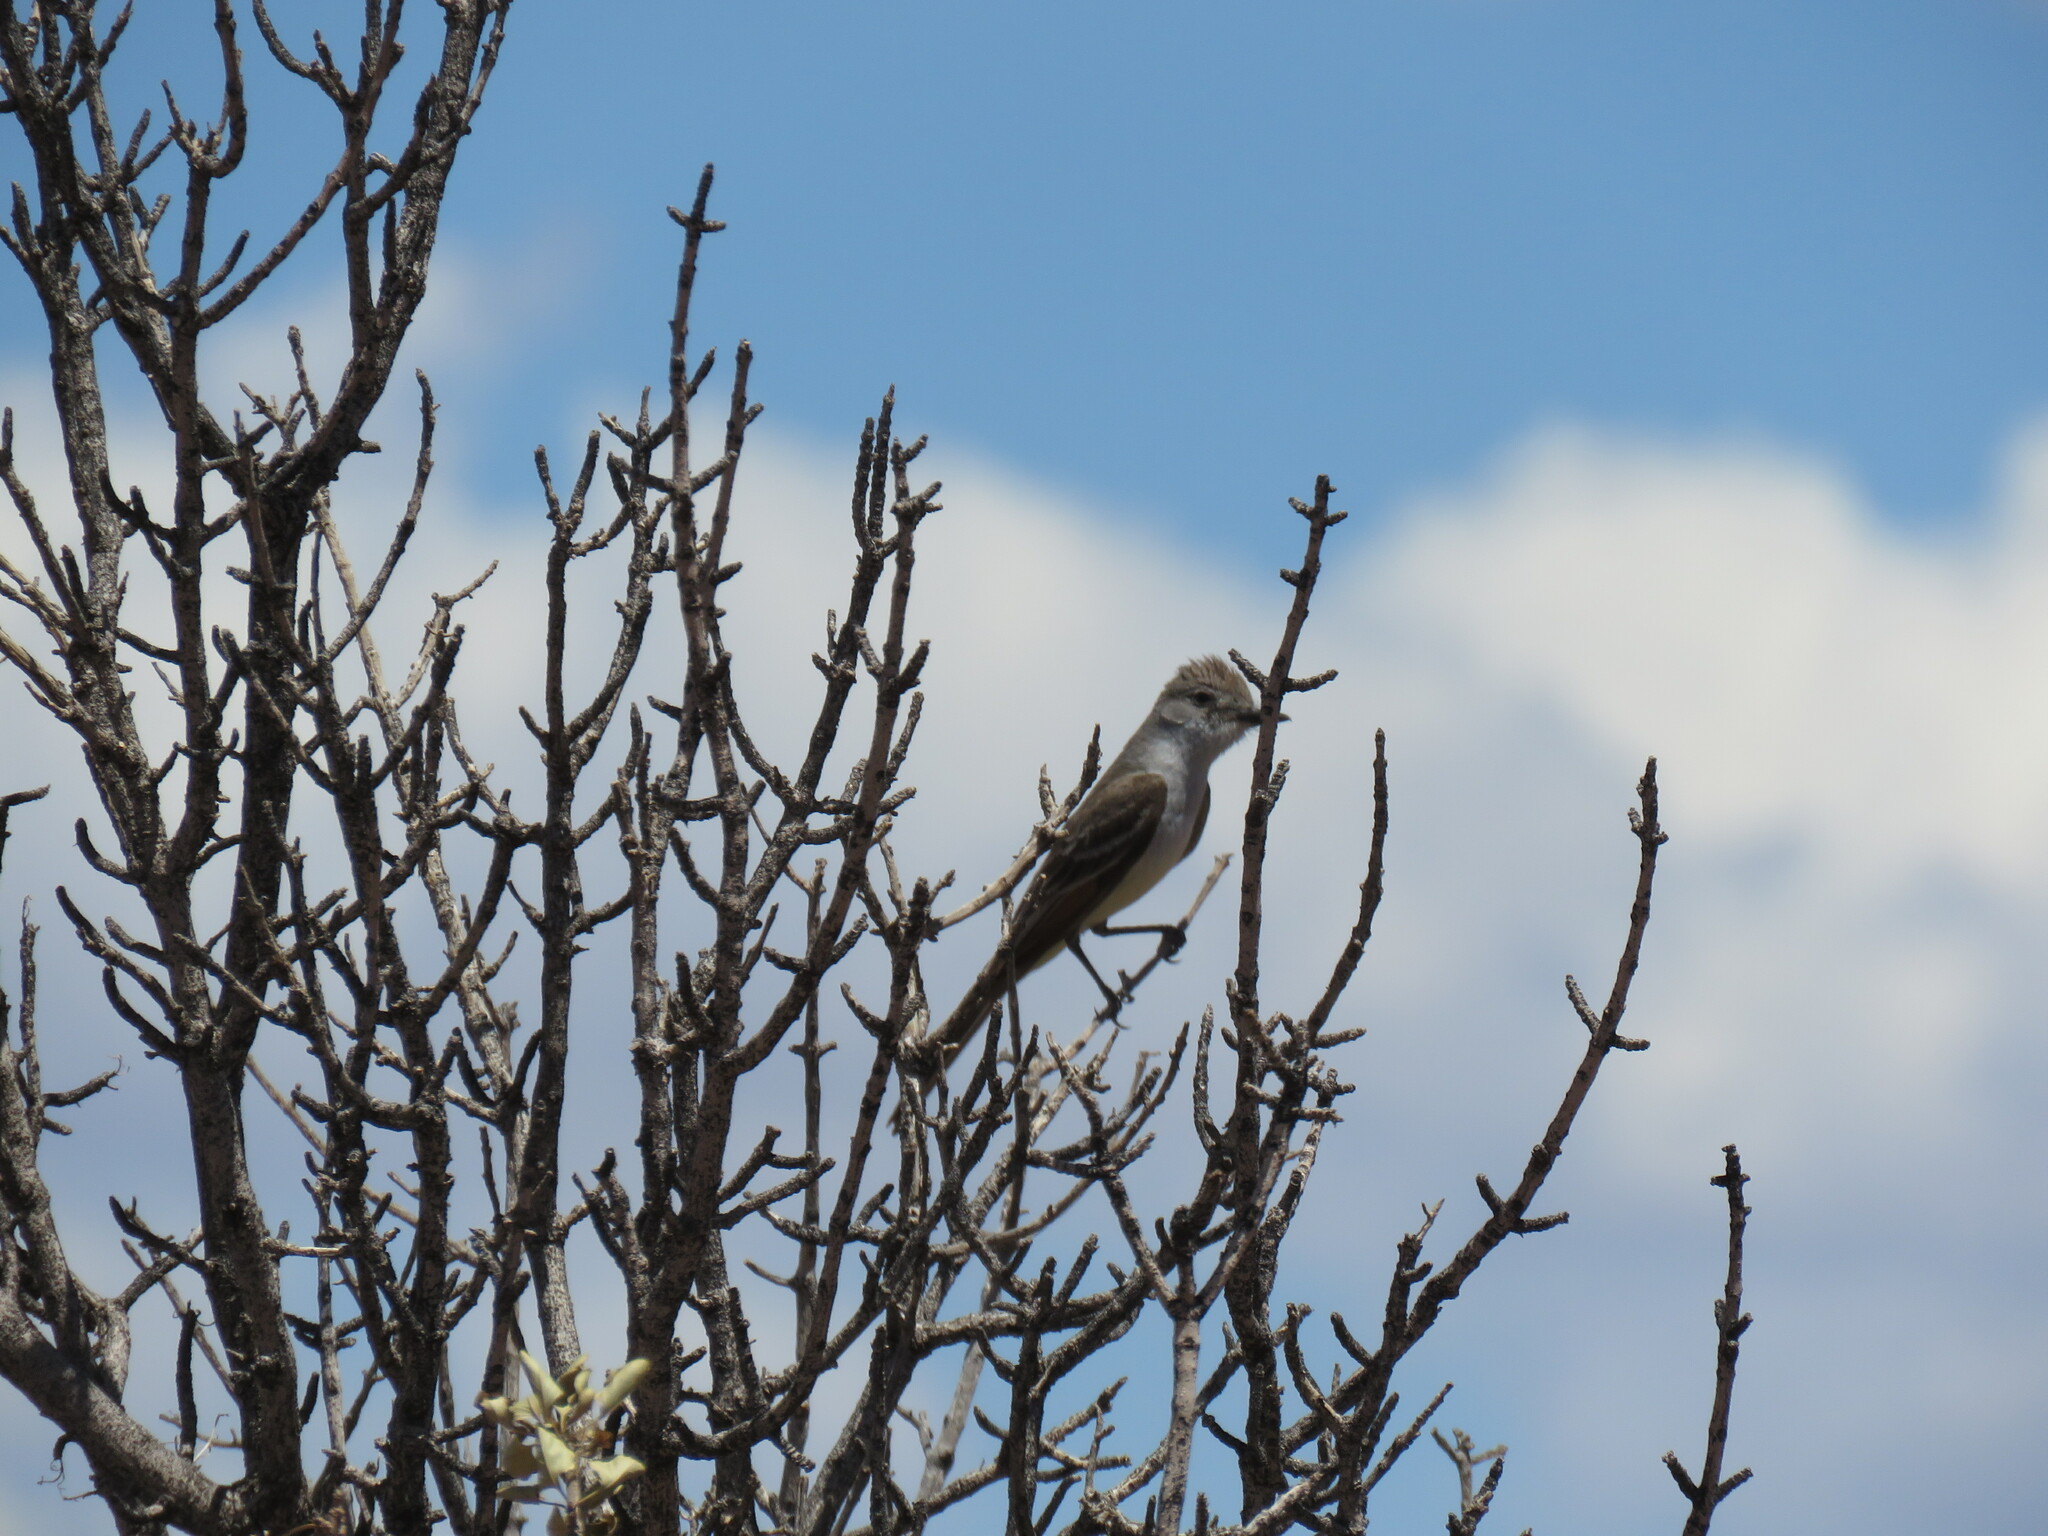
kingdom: Animalia
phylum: Chordata
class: Aves
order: Passeriformes
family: Tyrannidae
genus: Myiarchus
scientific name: Myiarchus cinerascens
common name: Ash-throated flycatcher
